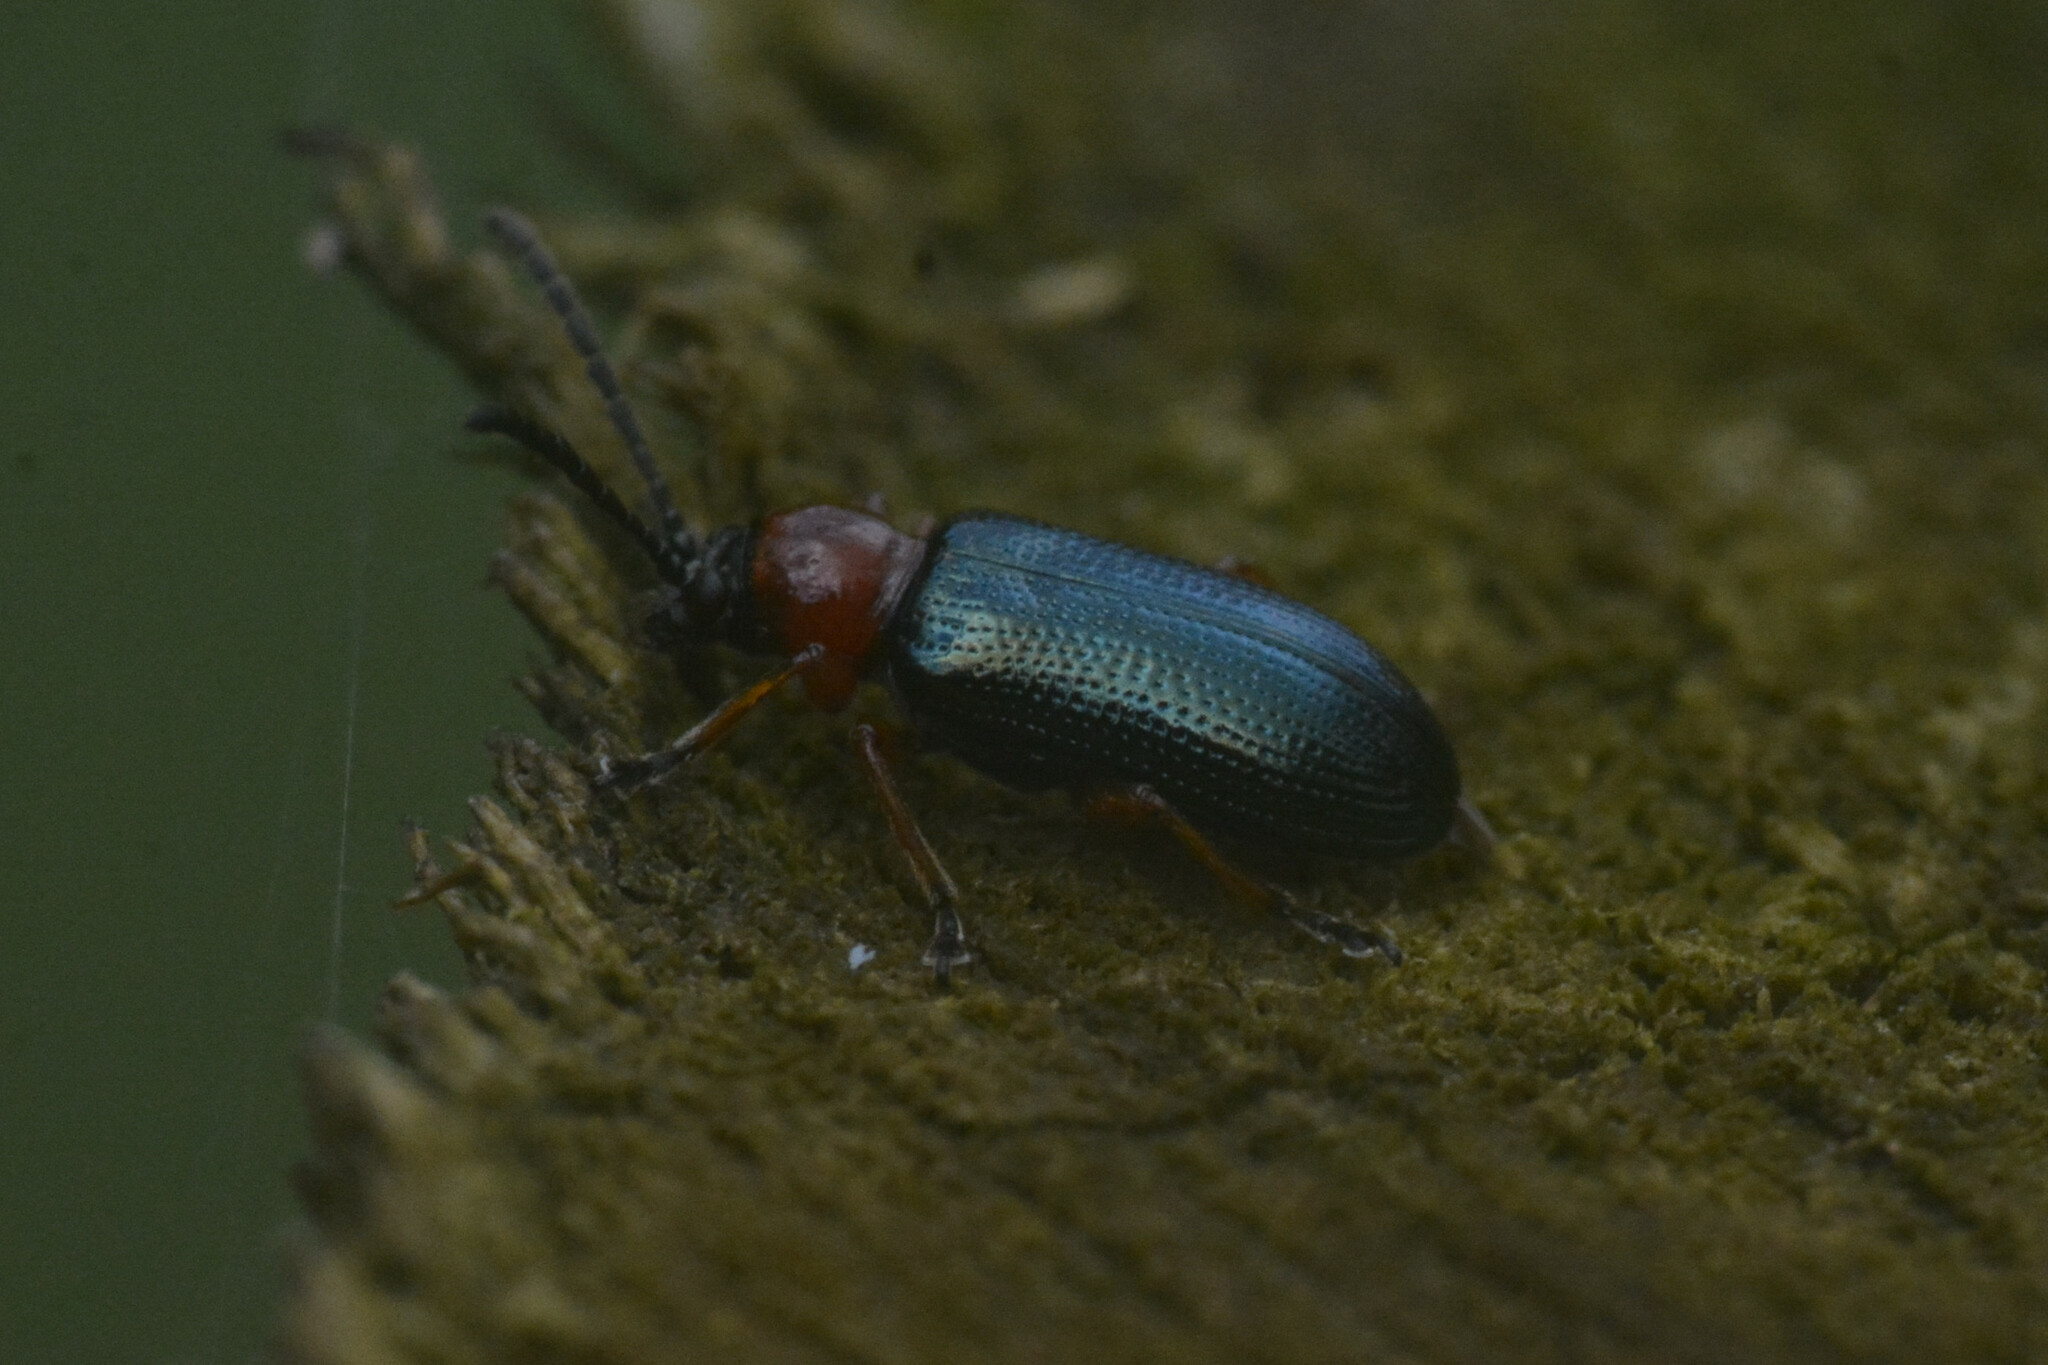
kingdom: Animalia
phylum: Arthropoda
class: Insecta
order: Coleoptera
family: Chrysomelidae
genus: Oulema
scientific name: Oulema
